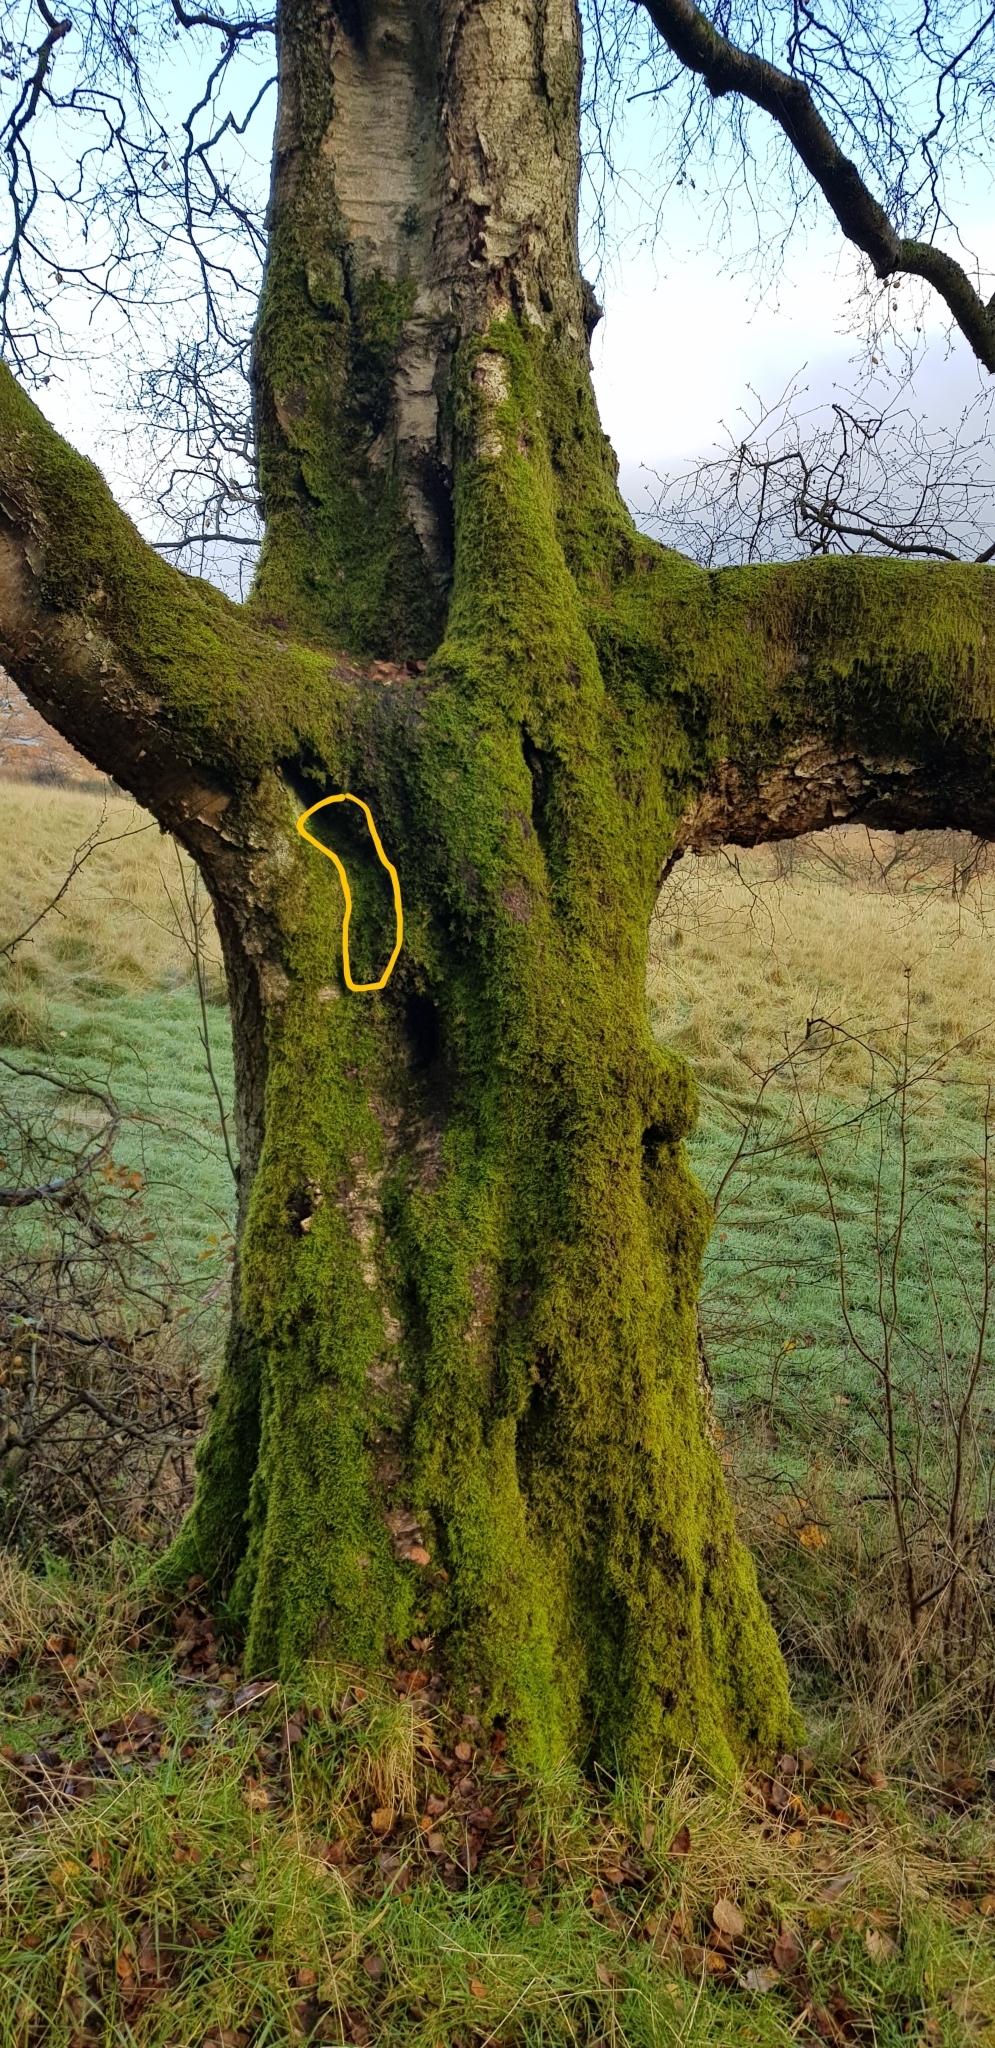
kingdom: Plantae
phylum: Bryophyta
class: Bryopsida
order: Hypnales
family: Hypnaceae
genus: Hypnum
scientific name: Hypnum resupinatum
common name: Supine plait-moss
